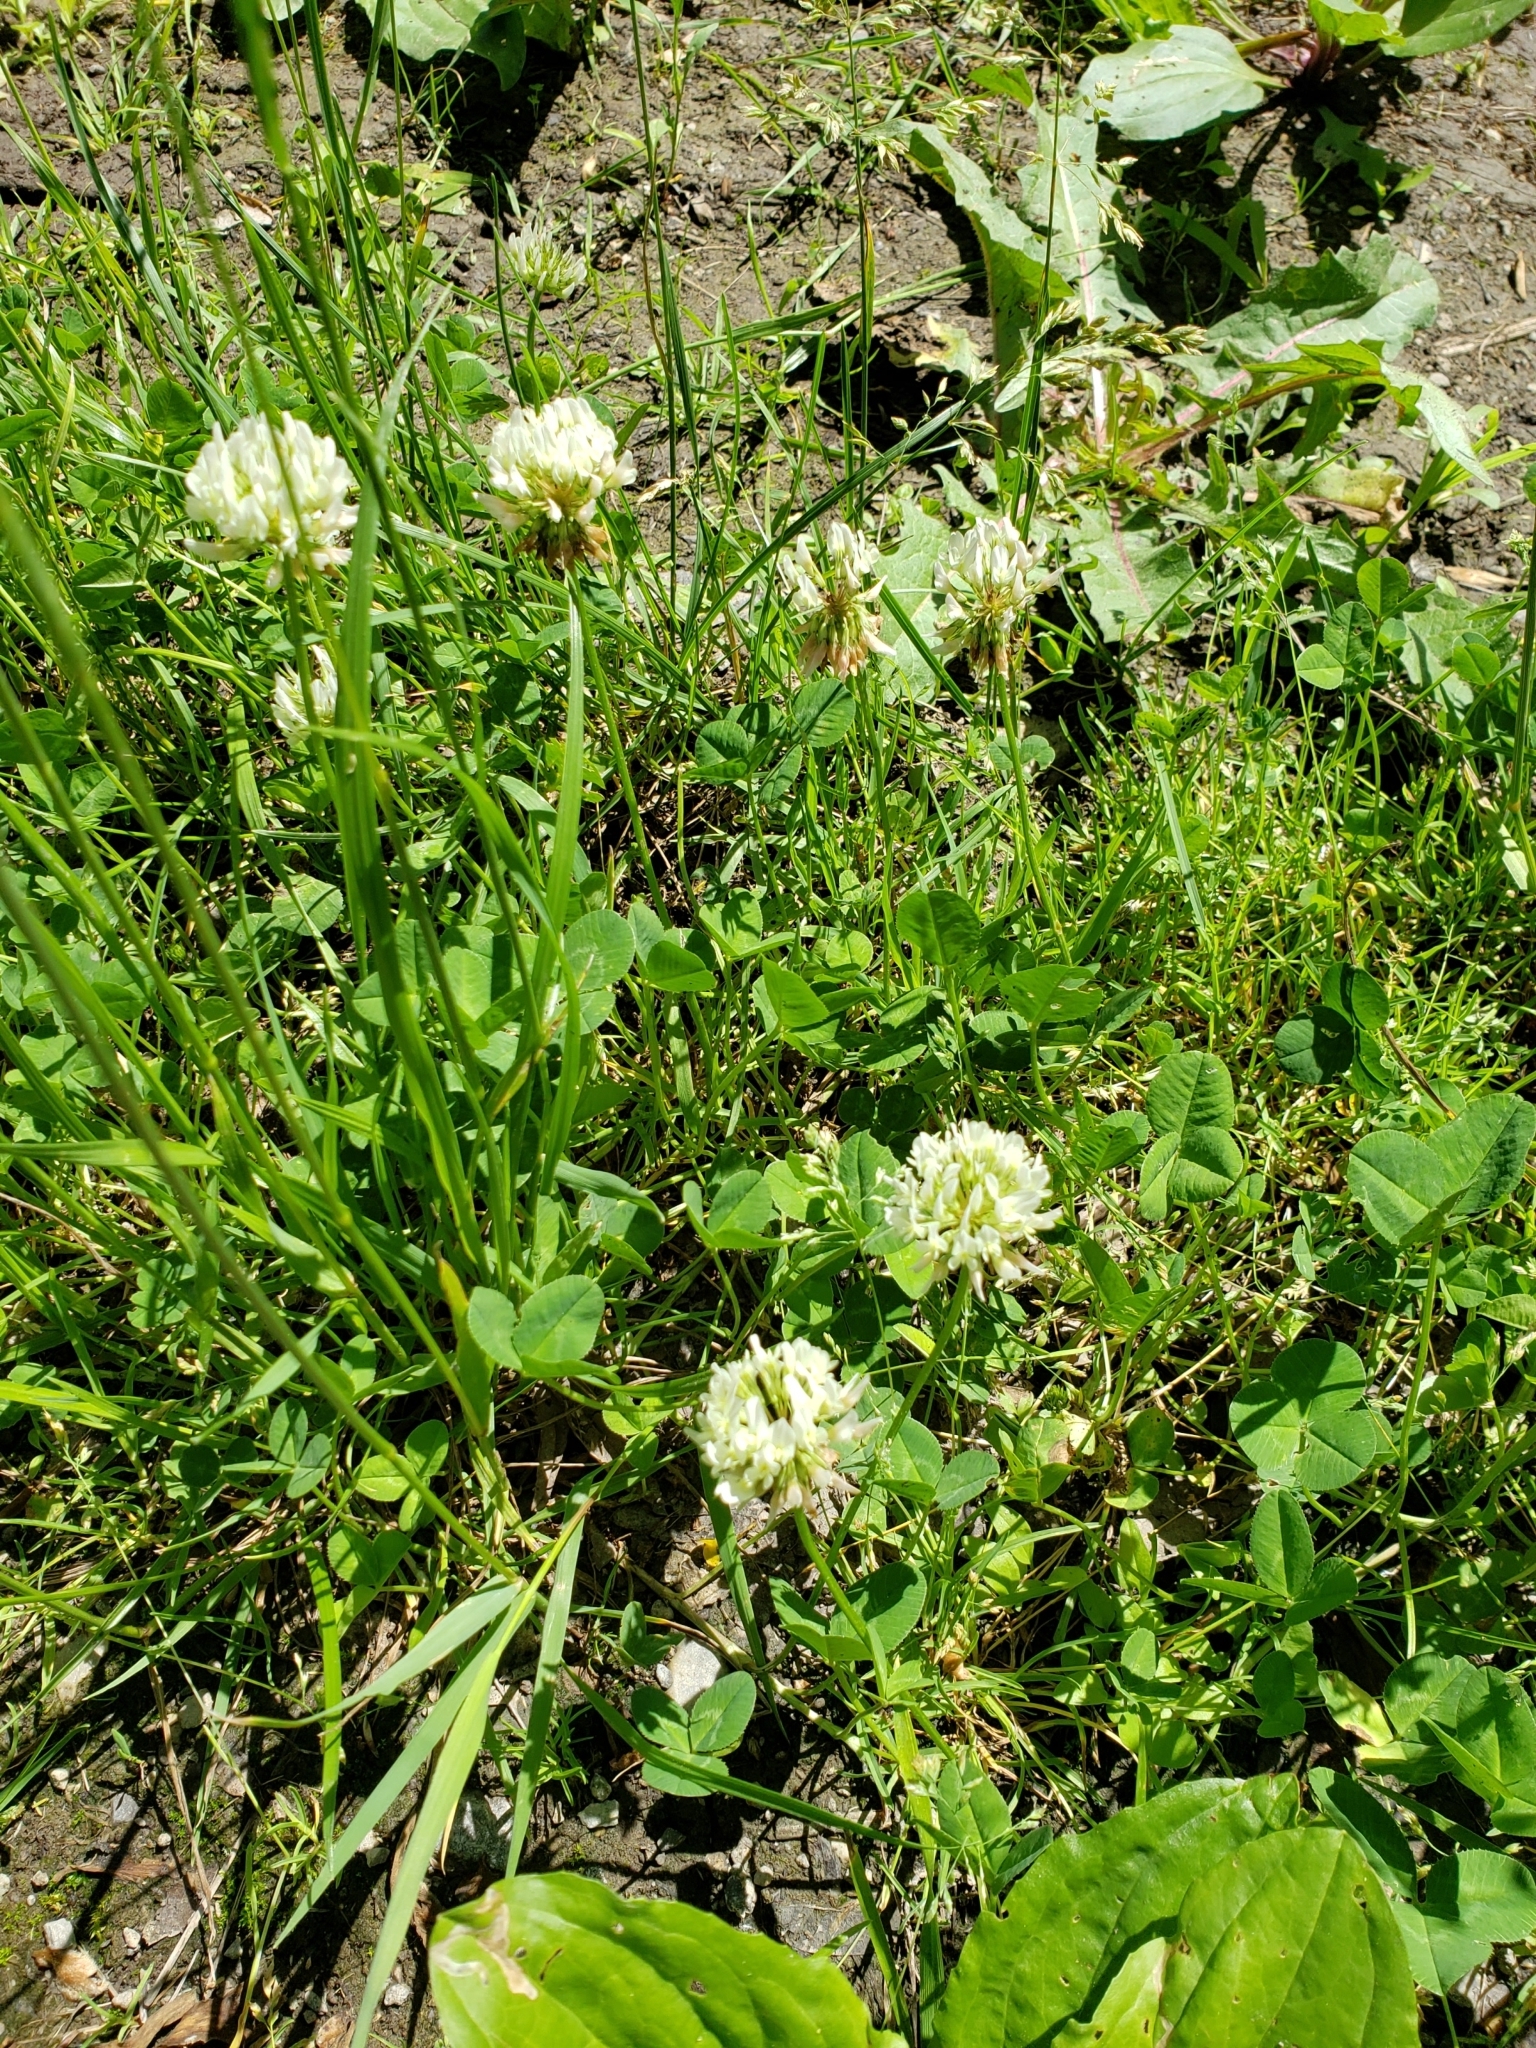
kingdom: Plantae
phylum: Tracheophyta
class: Magnoliopsida
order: Fabales
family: Fabaceae
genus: Trifolium
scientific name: Trifolium repens
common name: White clover
